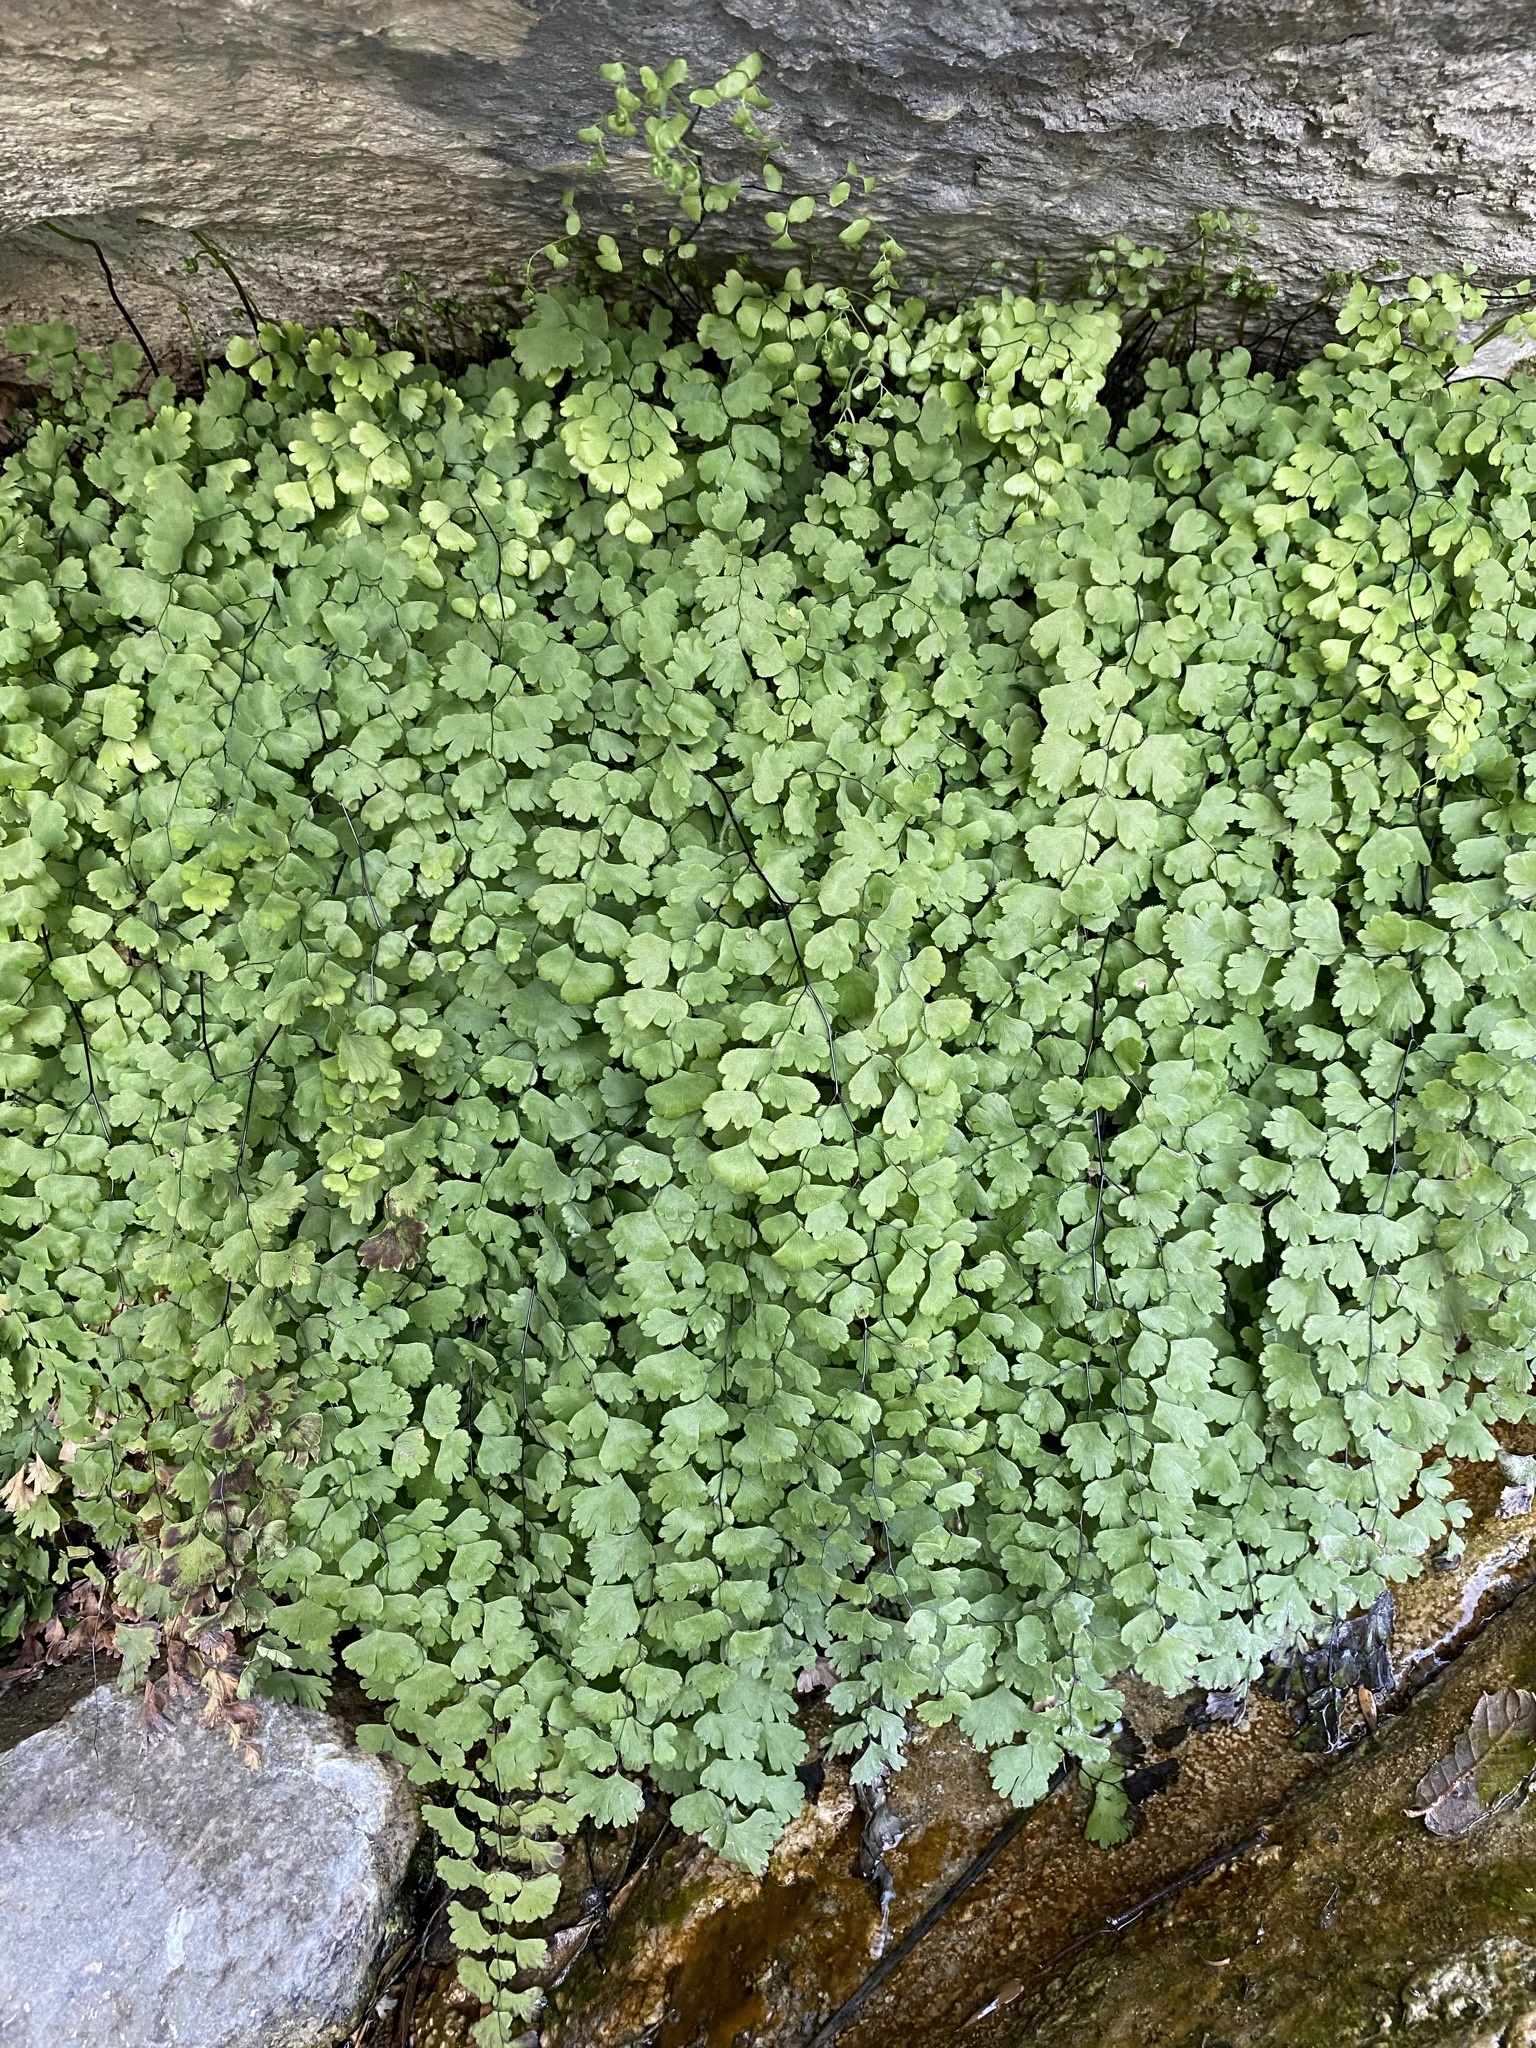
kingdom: Plantae
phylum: Tracheophyta
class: Polypodiopsida
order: Polypodiales
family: Pteridaceae
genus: Adiantum
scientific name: Adiantum capillus-veneris
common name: Maidenhair fern
